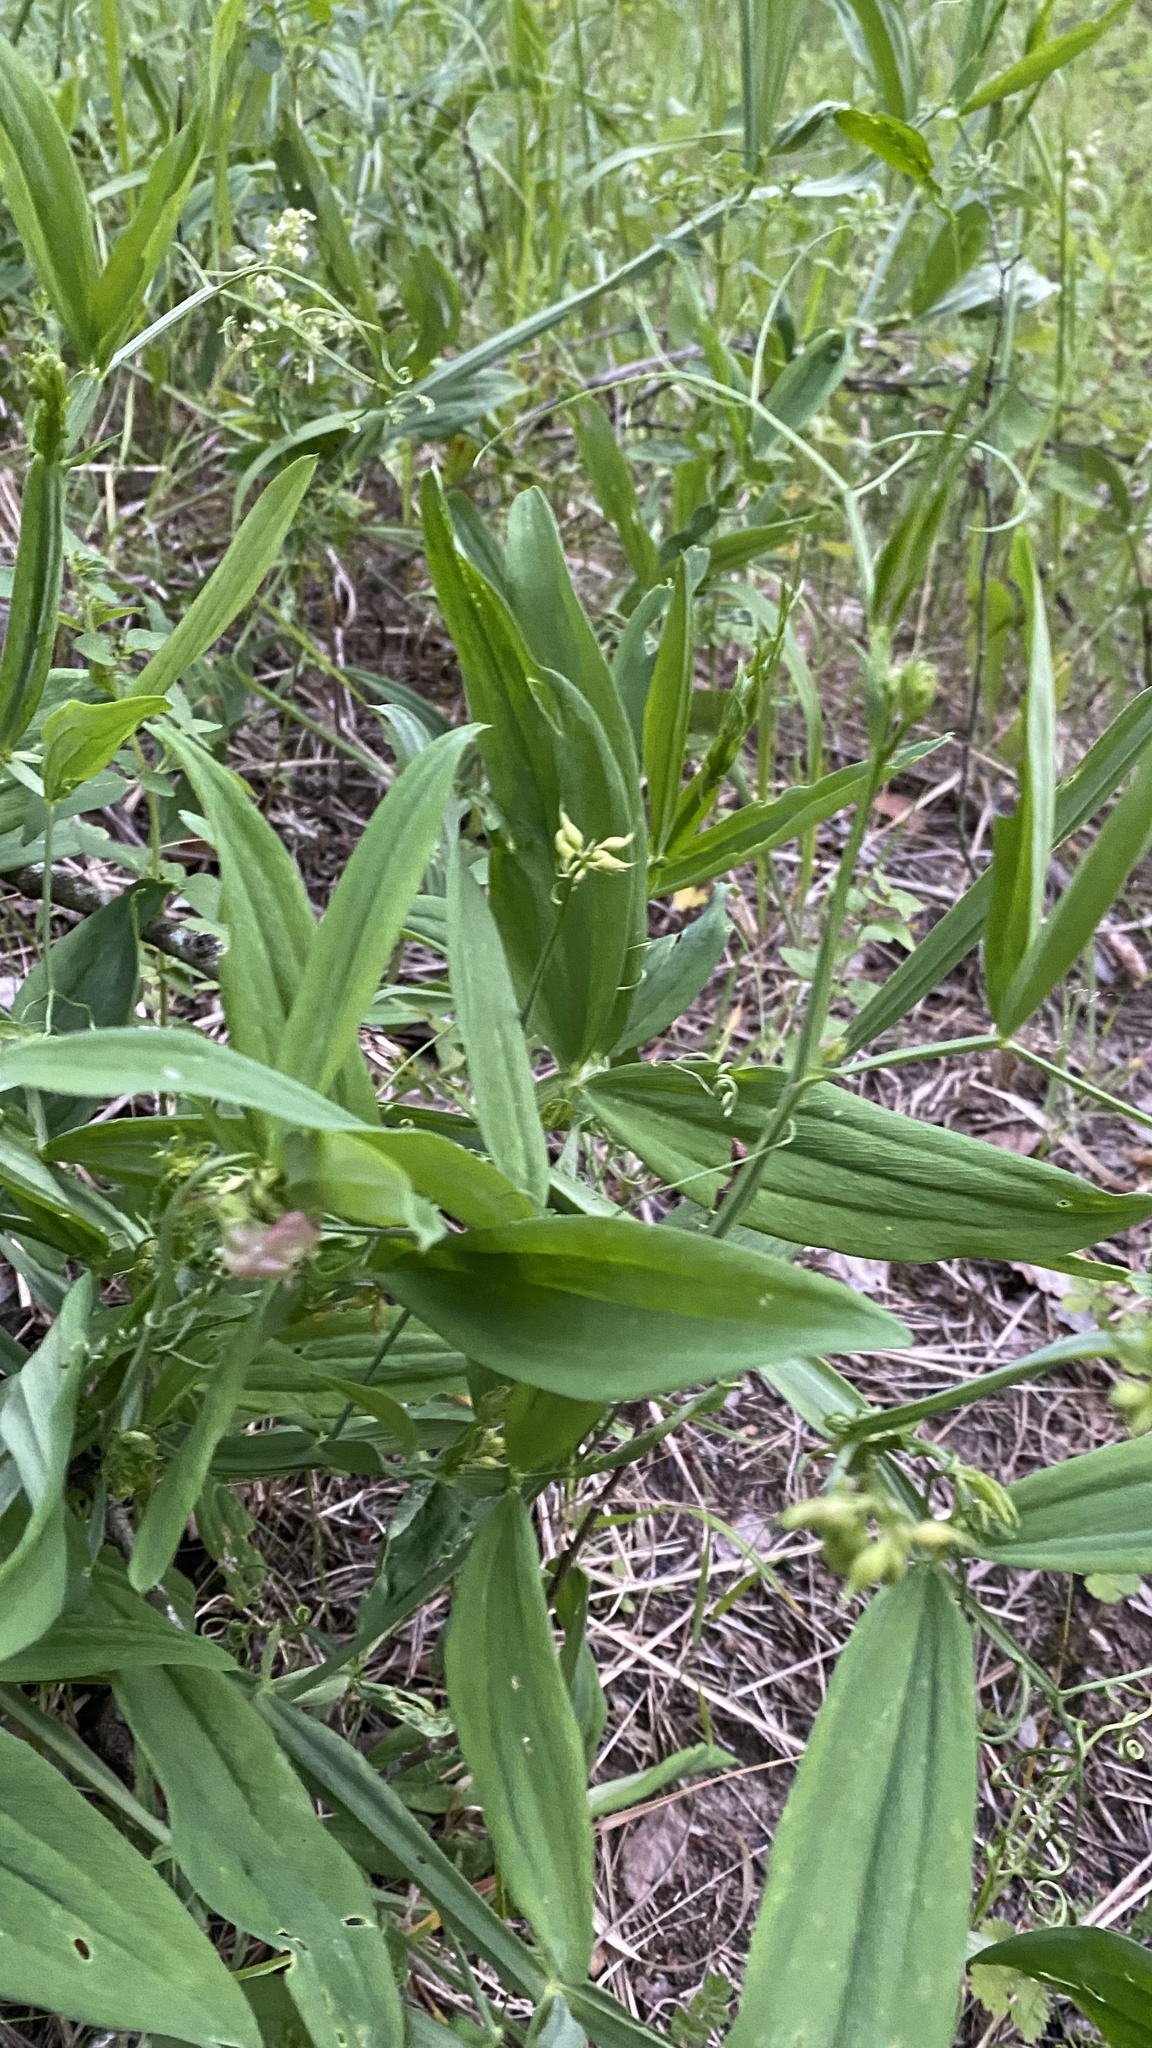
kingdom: Plantae
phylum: Tracheophyta
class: Magnoliopsida
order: Fabales
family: Fabaceae
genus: Lathyrus
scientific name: Lathyrus sylvestris
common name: Flat pea
